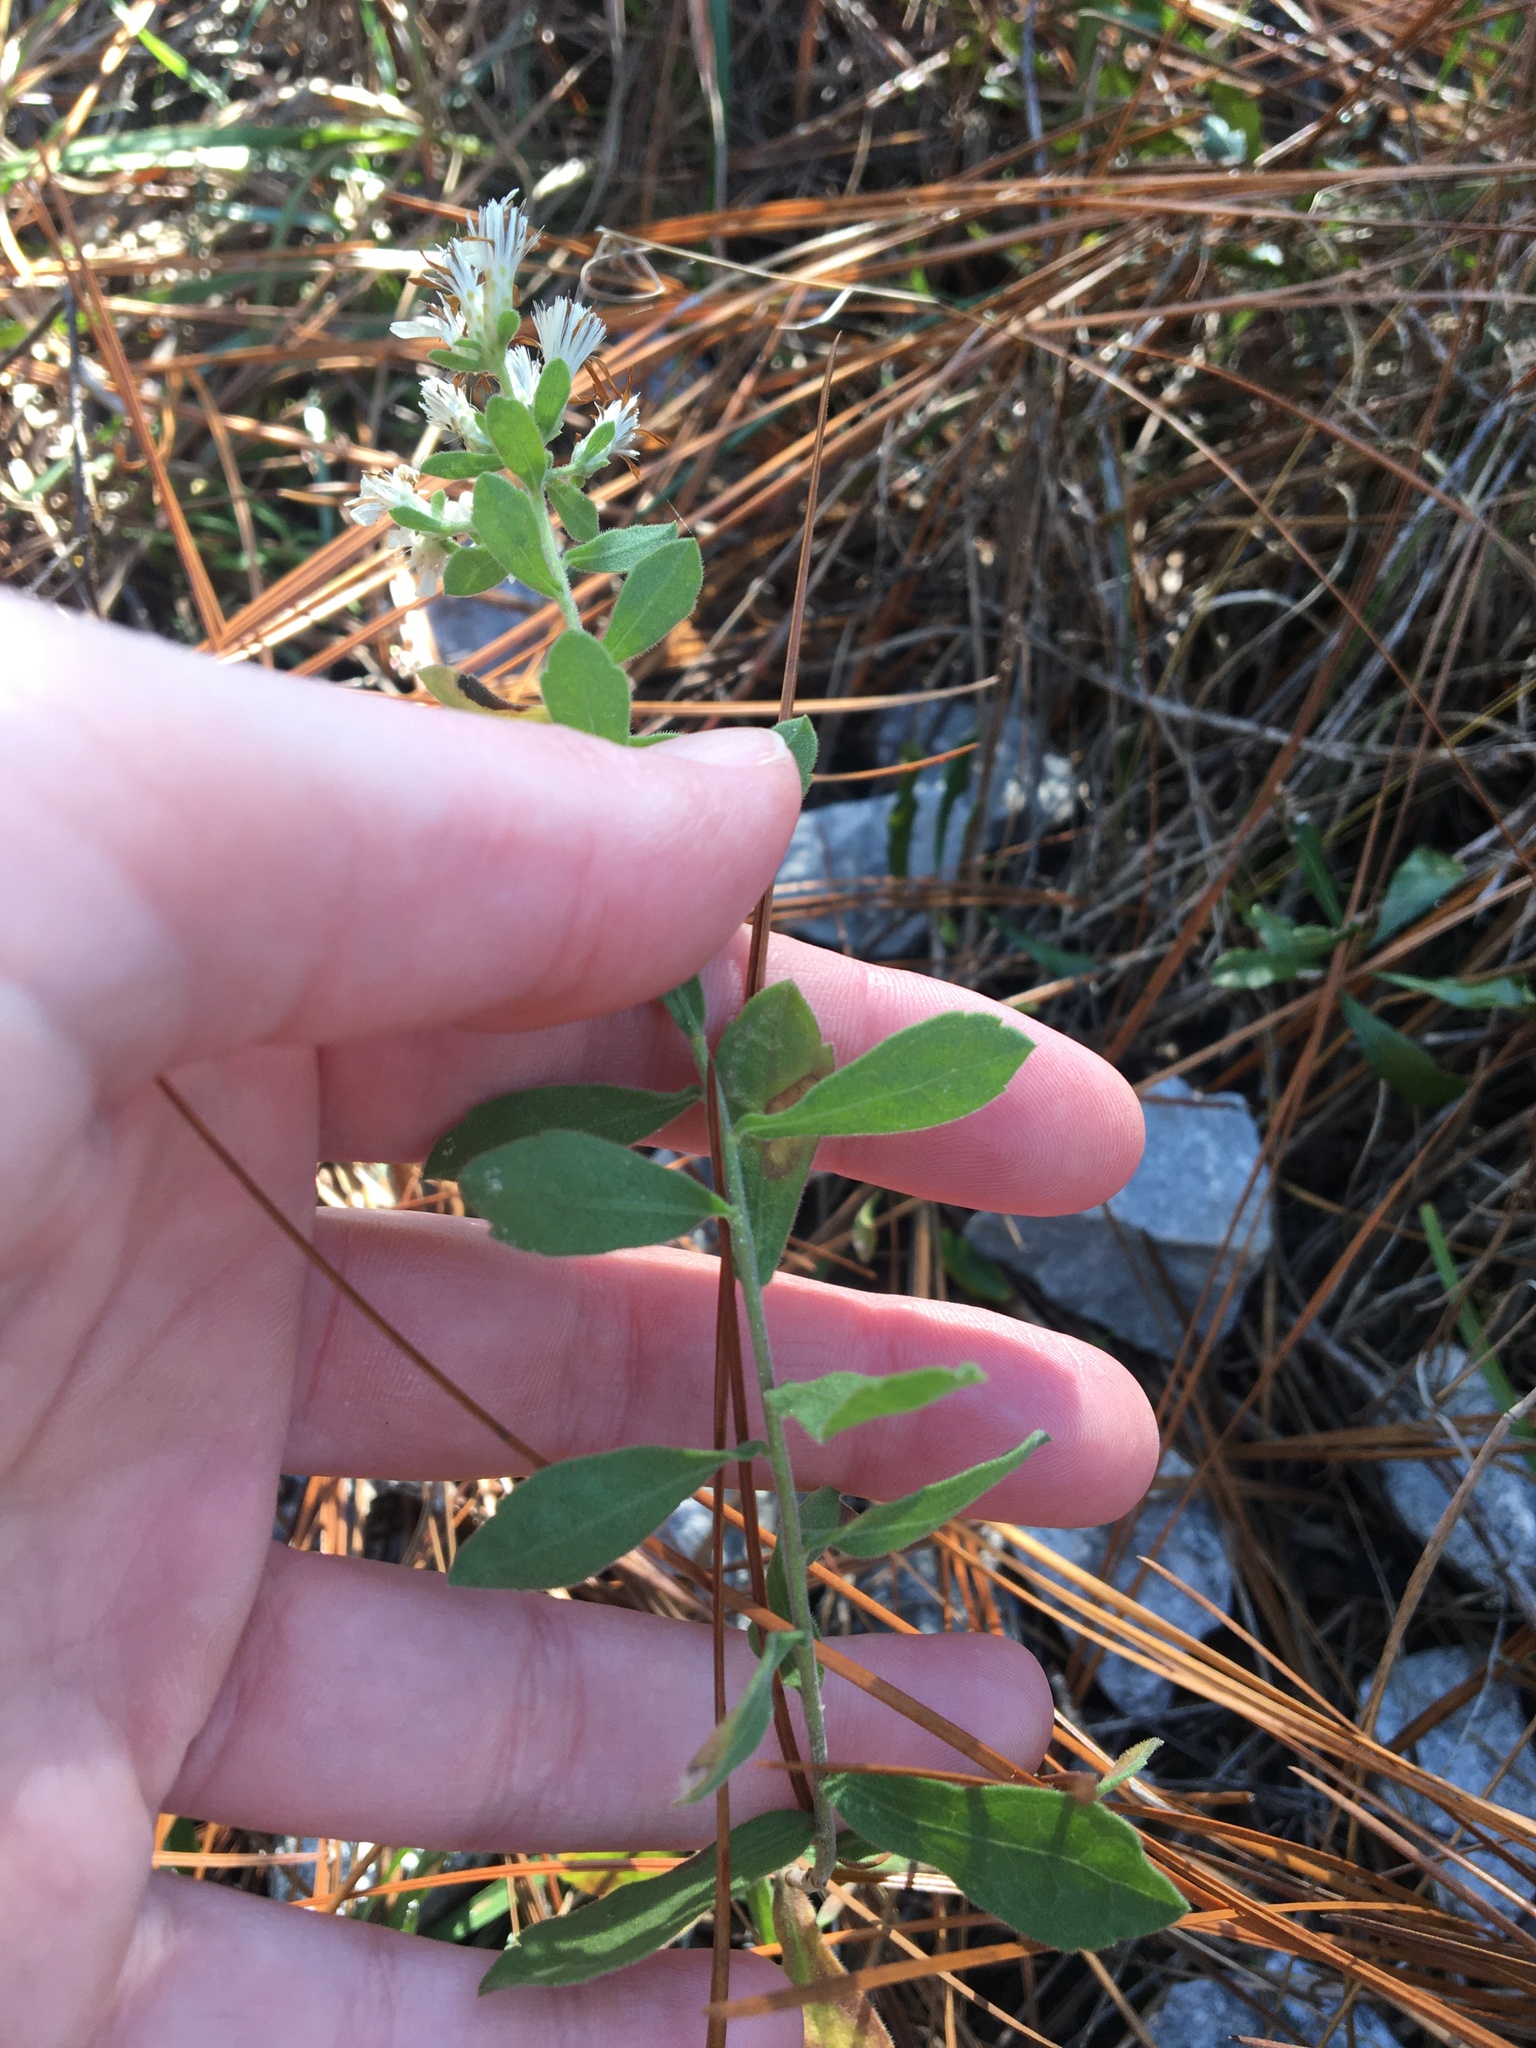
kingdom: Plantae
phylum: Tracheophyta
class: Magnoliopsida
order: Asterales
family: Asteraceae
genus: Sericocarpus
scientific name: Sericocarpus tortifolius
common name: Dixie aster
